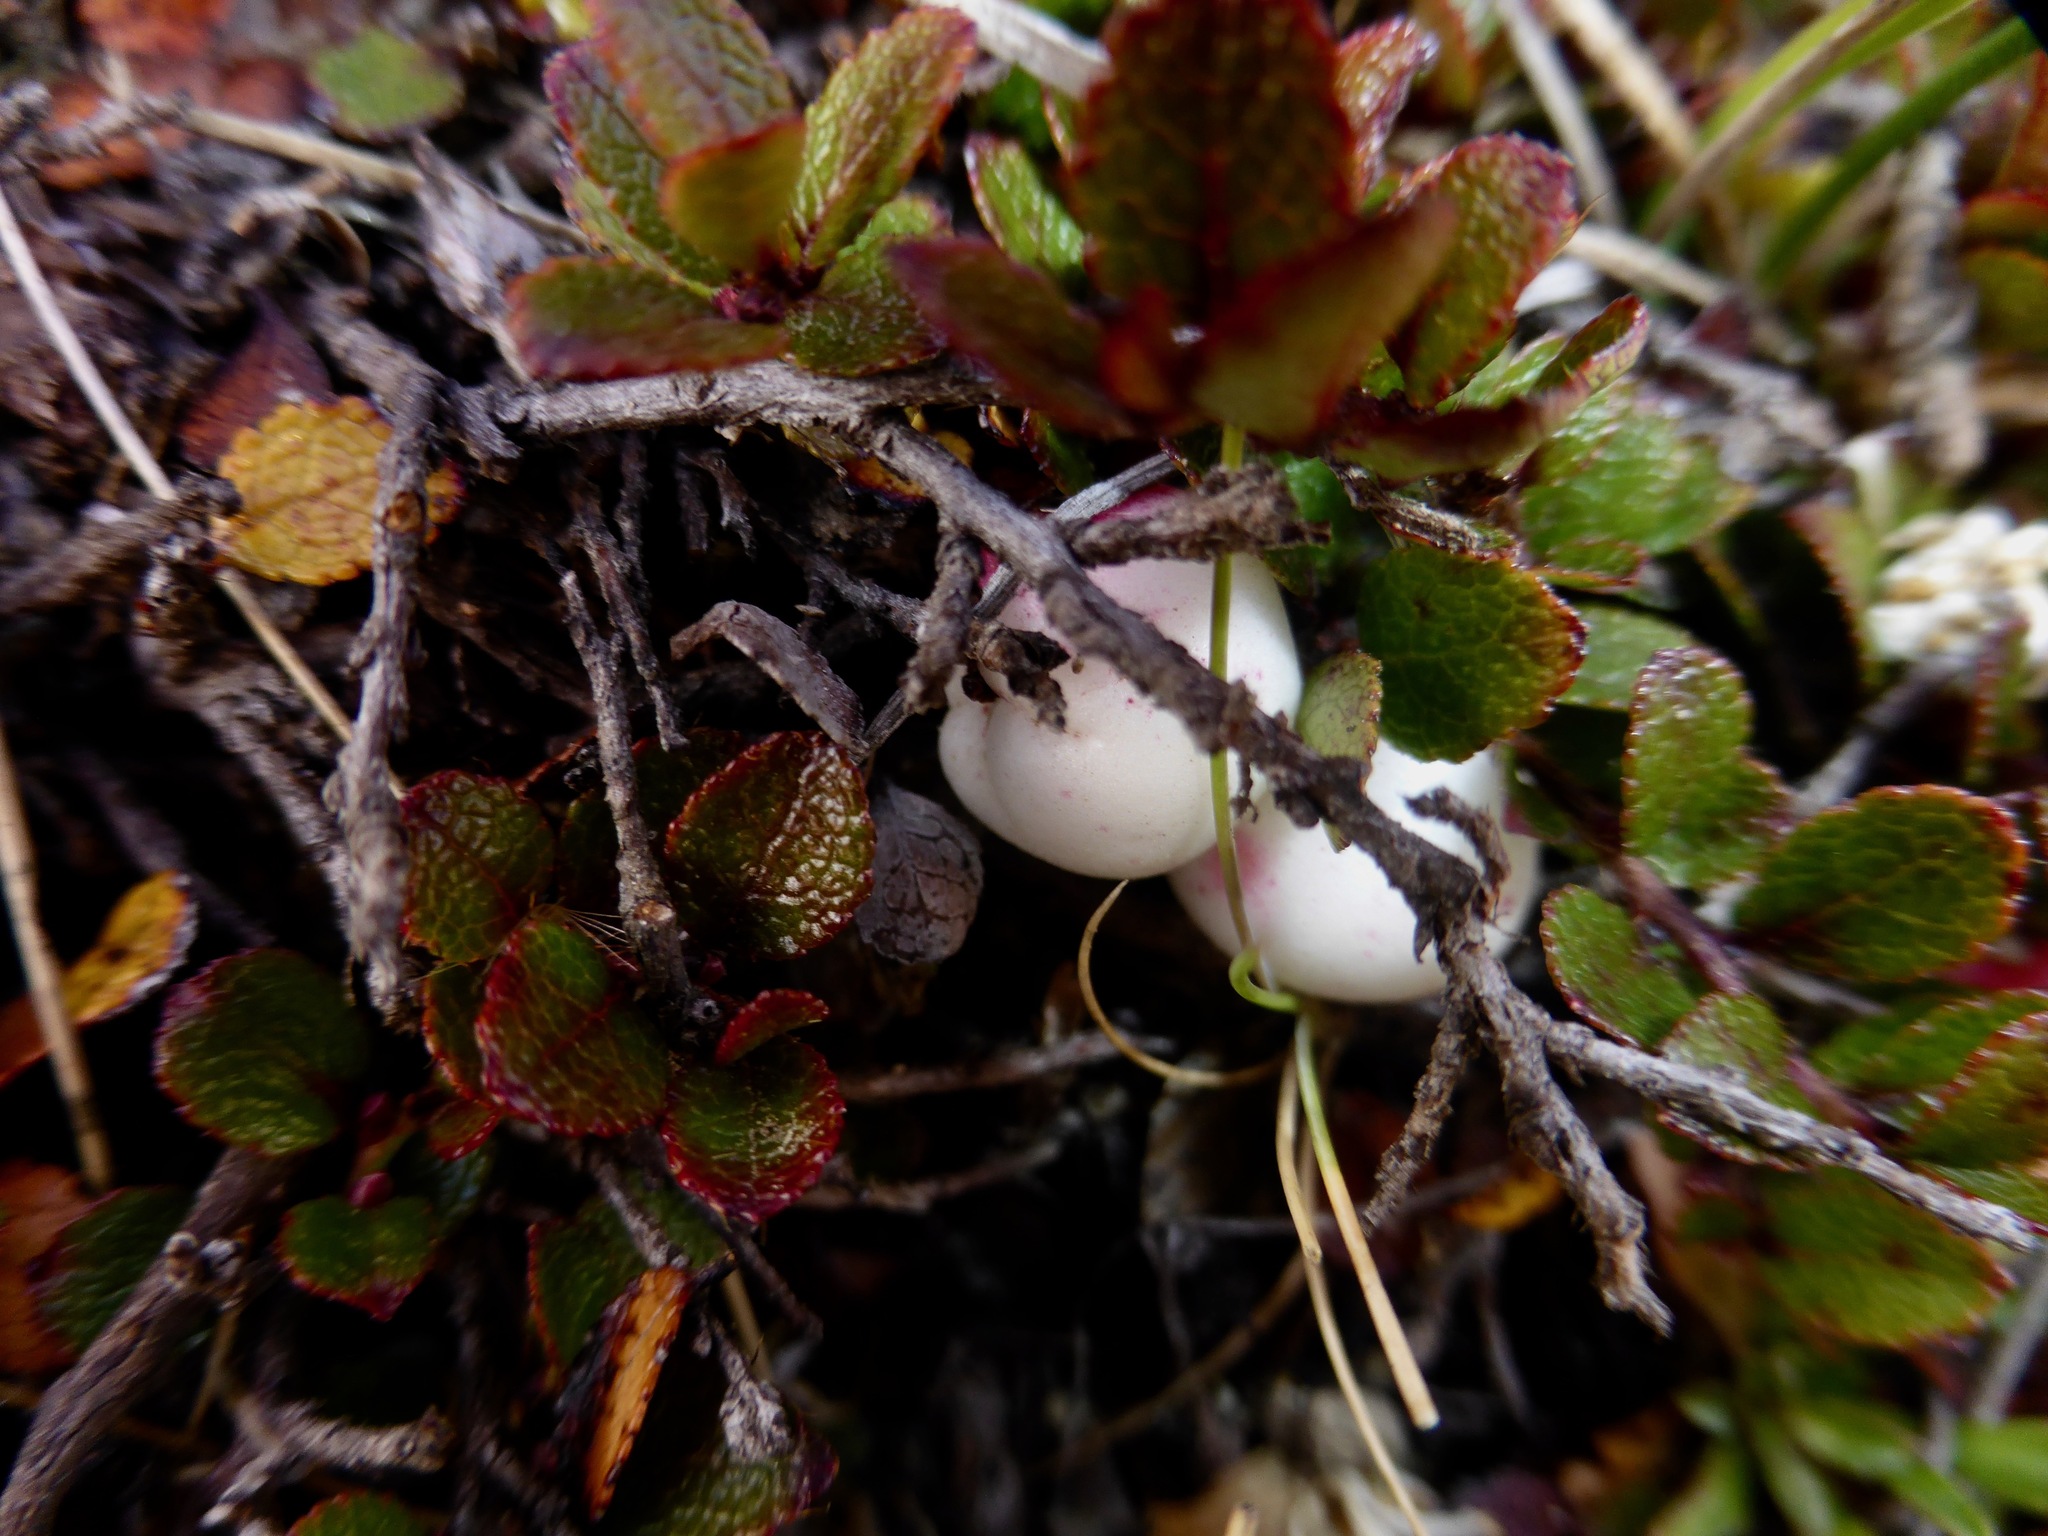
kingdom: Plantae
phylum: Tracheophyta
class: Magnoliopsida
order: Ericales
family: Ericaceae
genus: Gaultheria
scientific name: Gaultheria depressa
